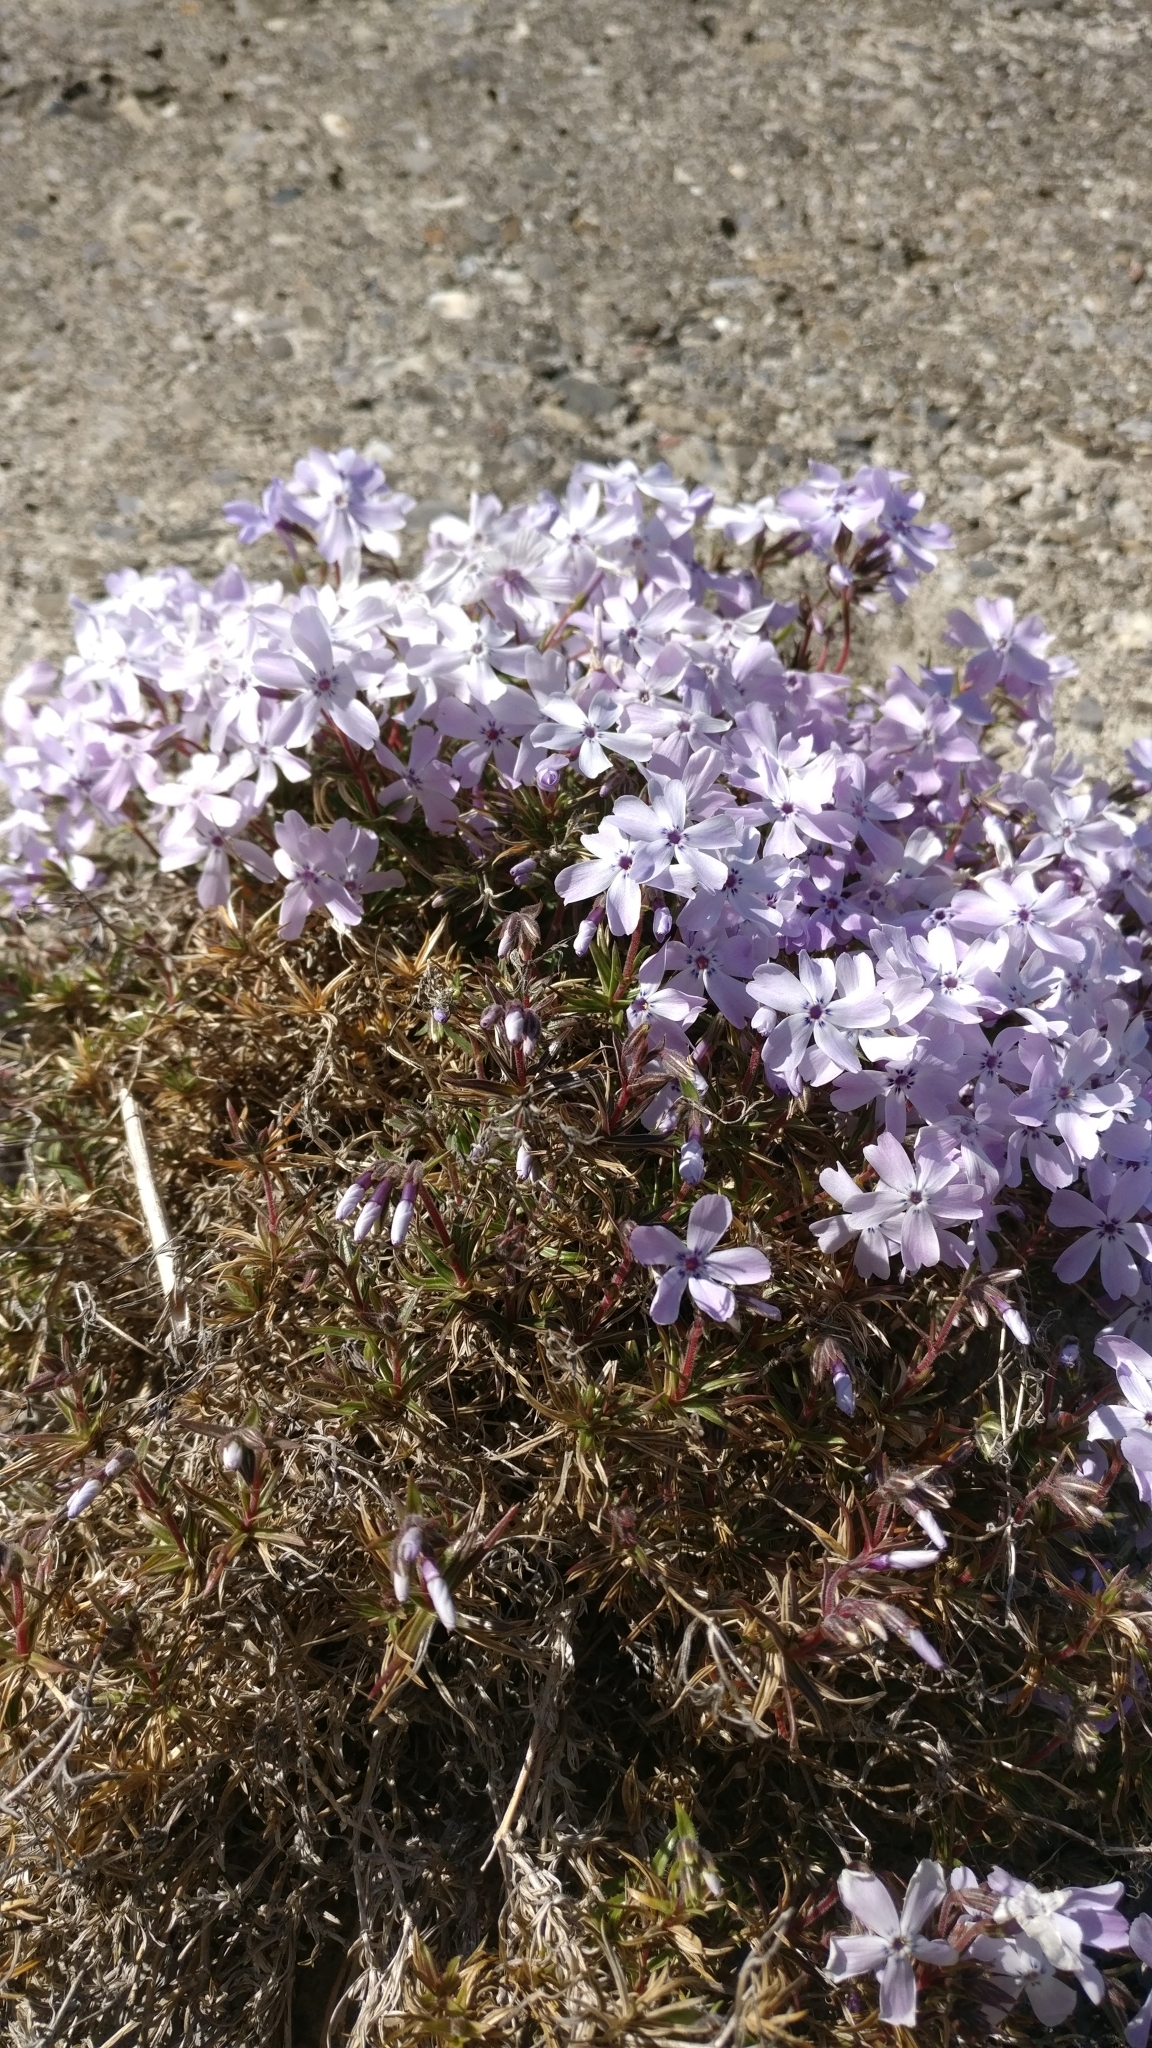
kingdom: Plantae
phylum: Tracheophyta
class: Magnoliopsida
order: Ericales
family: Polemoniaceae
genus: Phlox
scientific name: Phlox subulata
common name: Moss phlox
